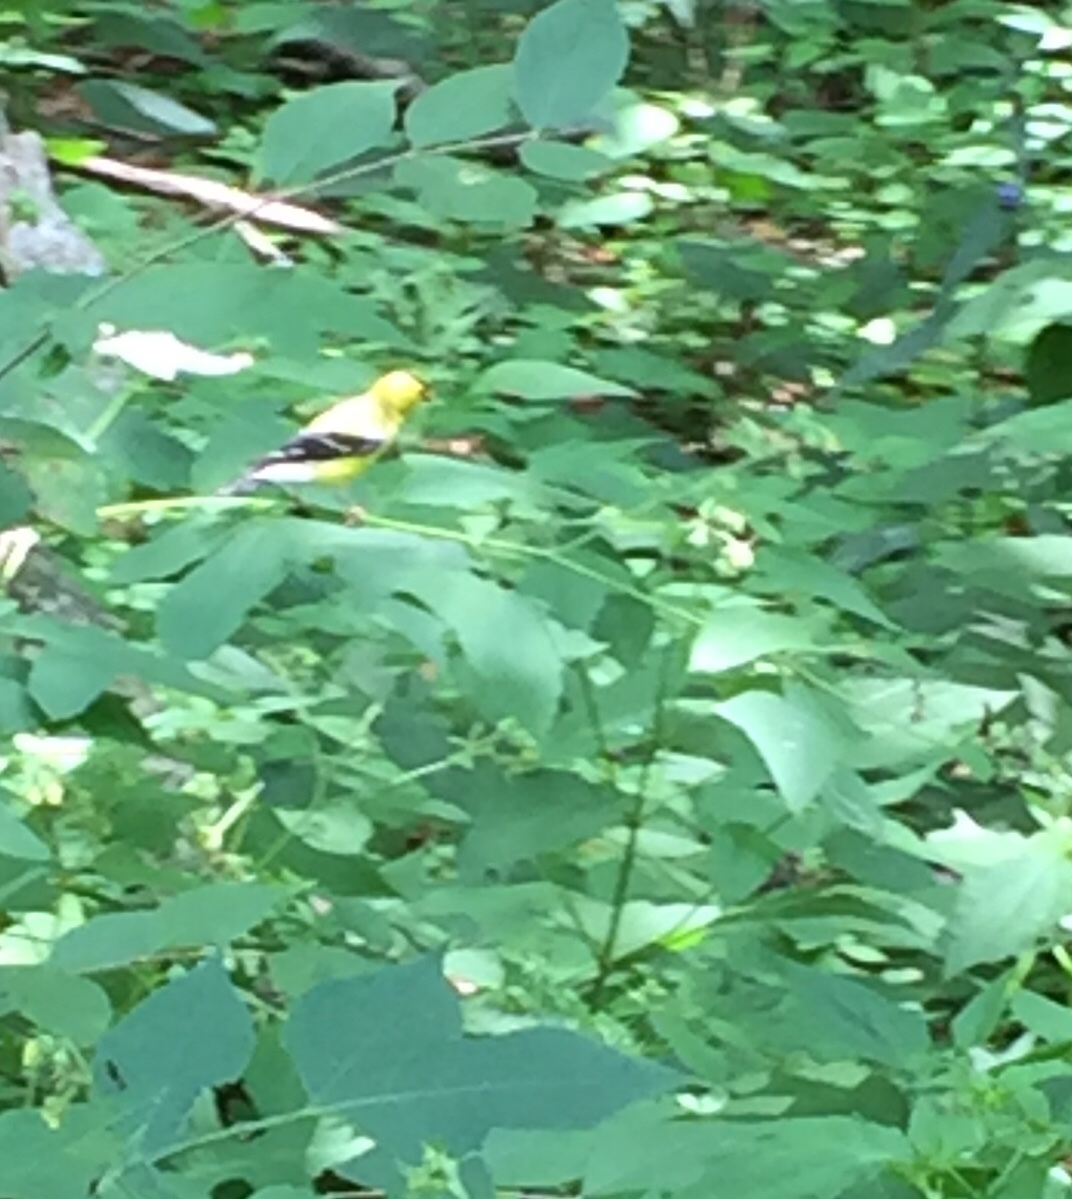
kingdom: Animalia
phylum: Chordata
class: Aves
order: Passeriformes
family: Fringillidae
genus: Spinus
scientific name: Spinus tristis
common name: American goldfinch
